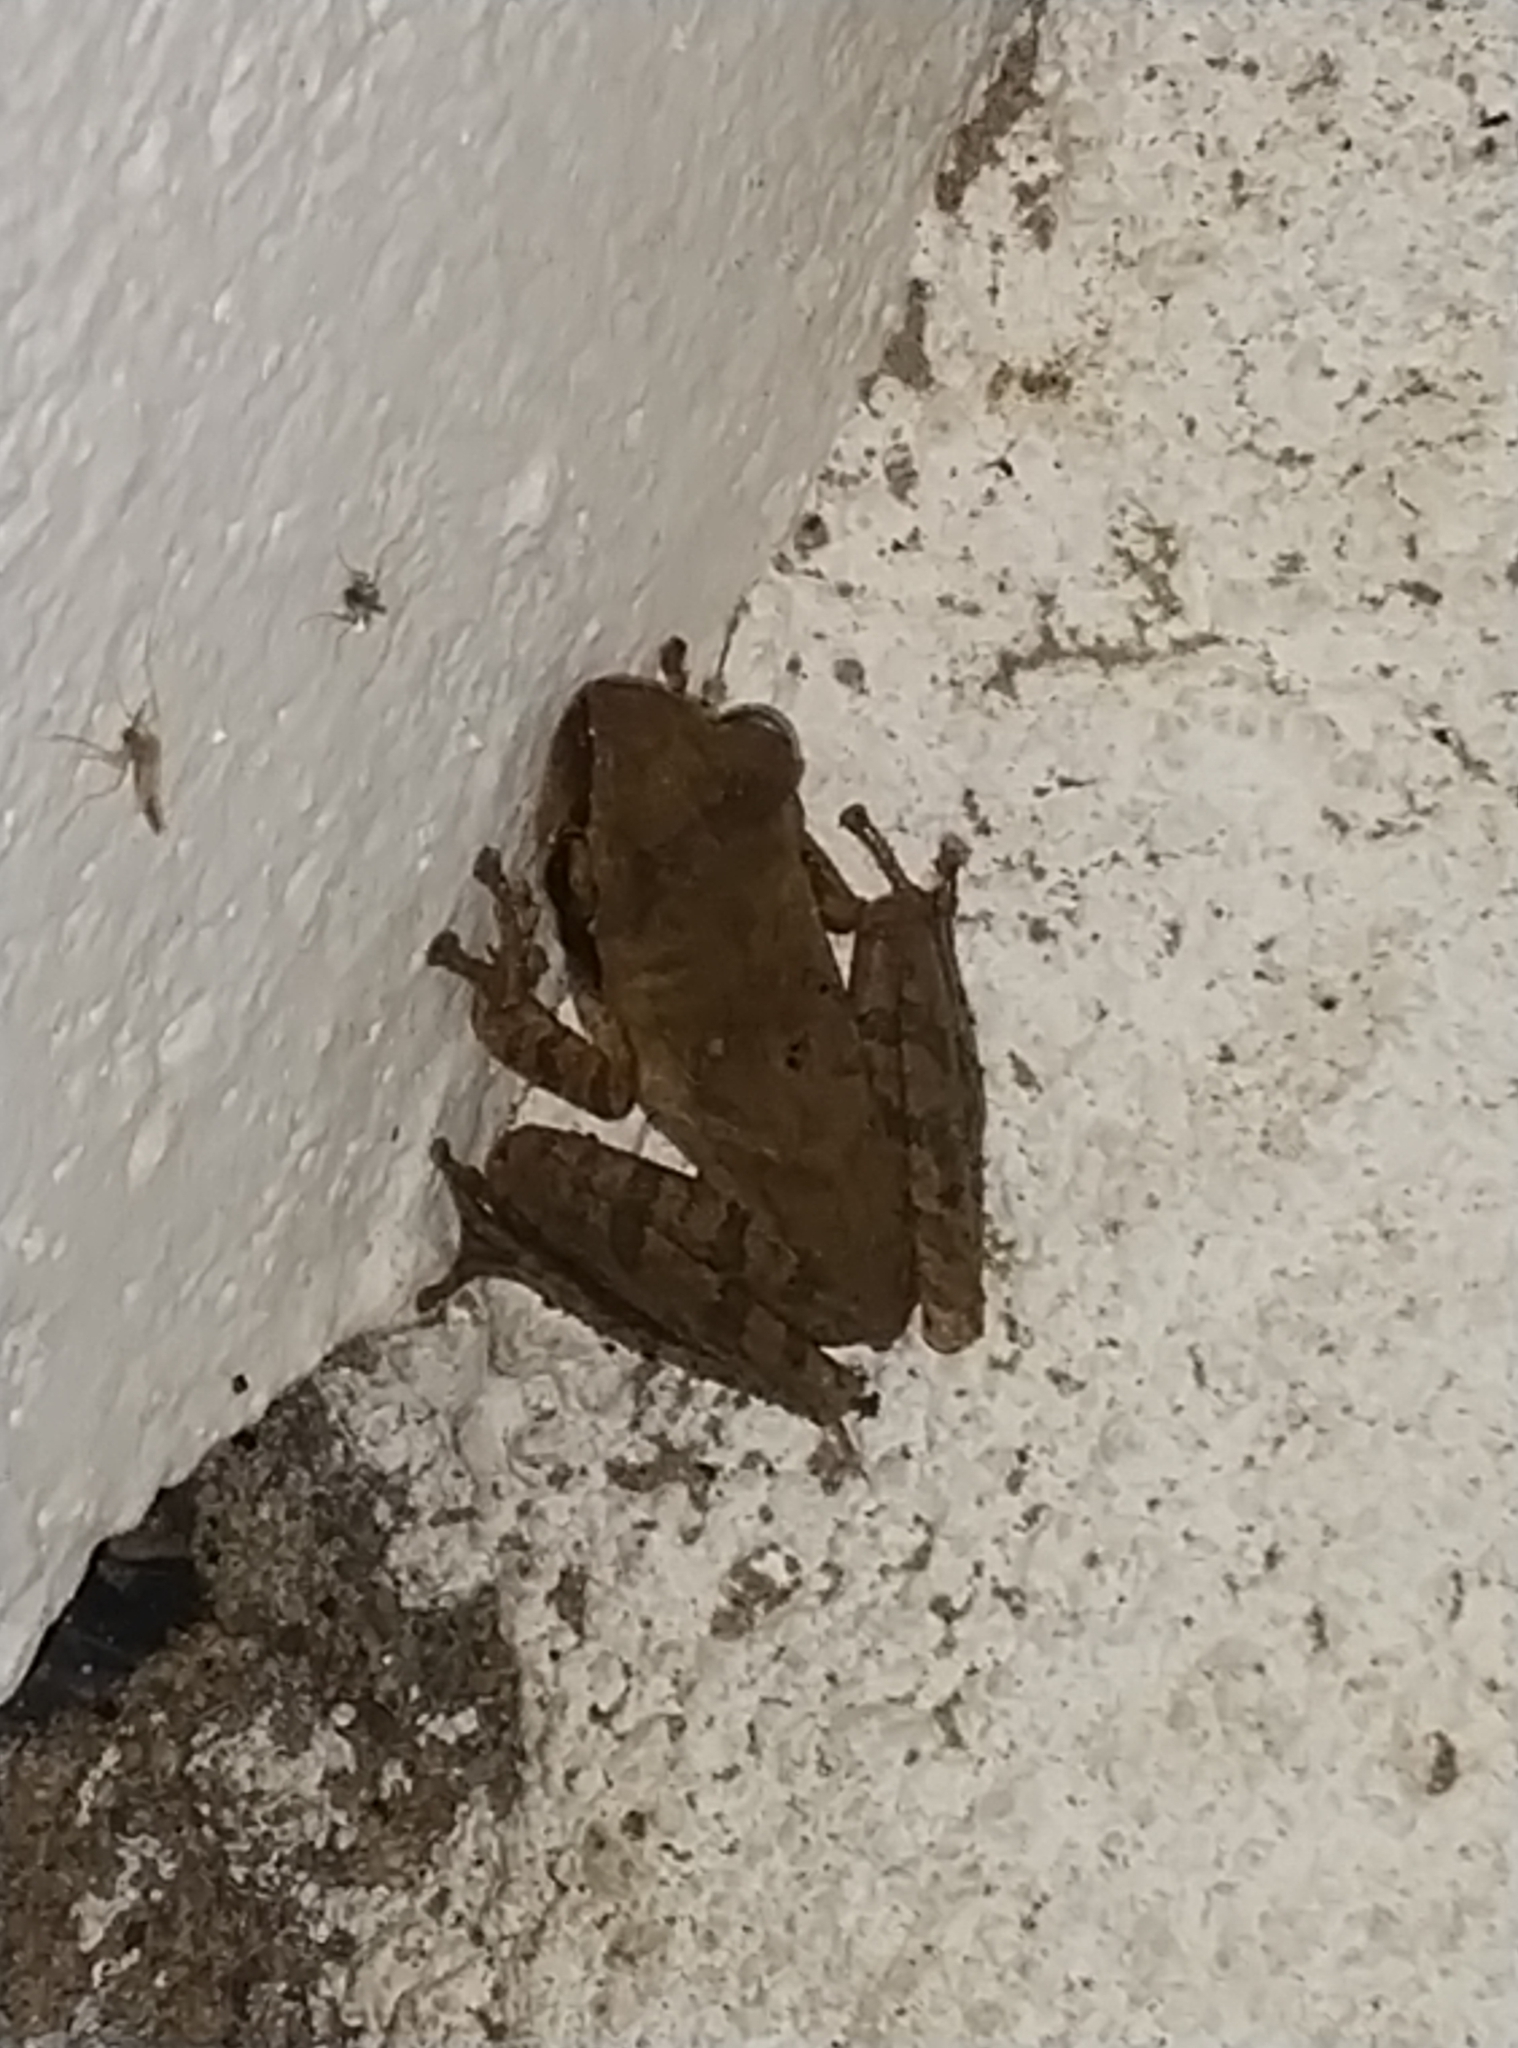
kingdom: Animalia
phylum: Chordata
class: Amphibia
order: Anura
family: Rhacophoridae
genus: Polypedates
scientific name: Polypedates maculatus
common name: Himalayan tree frog
